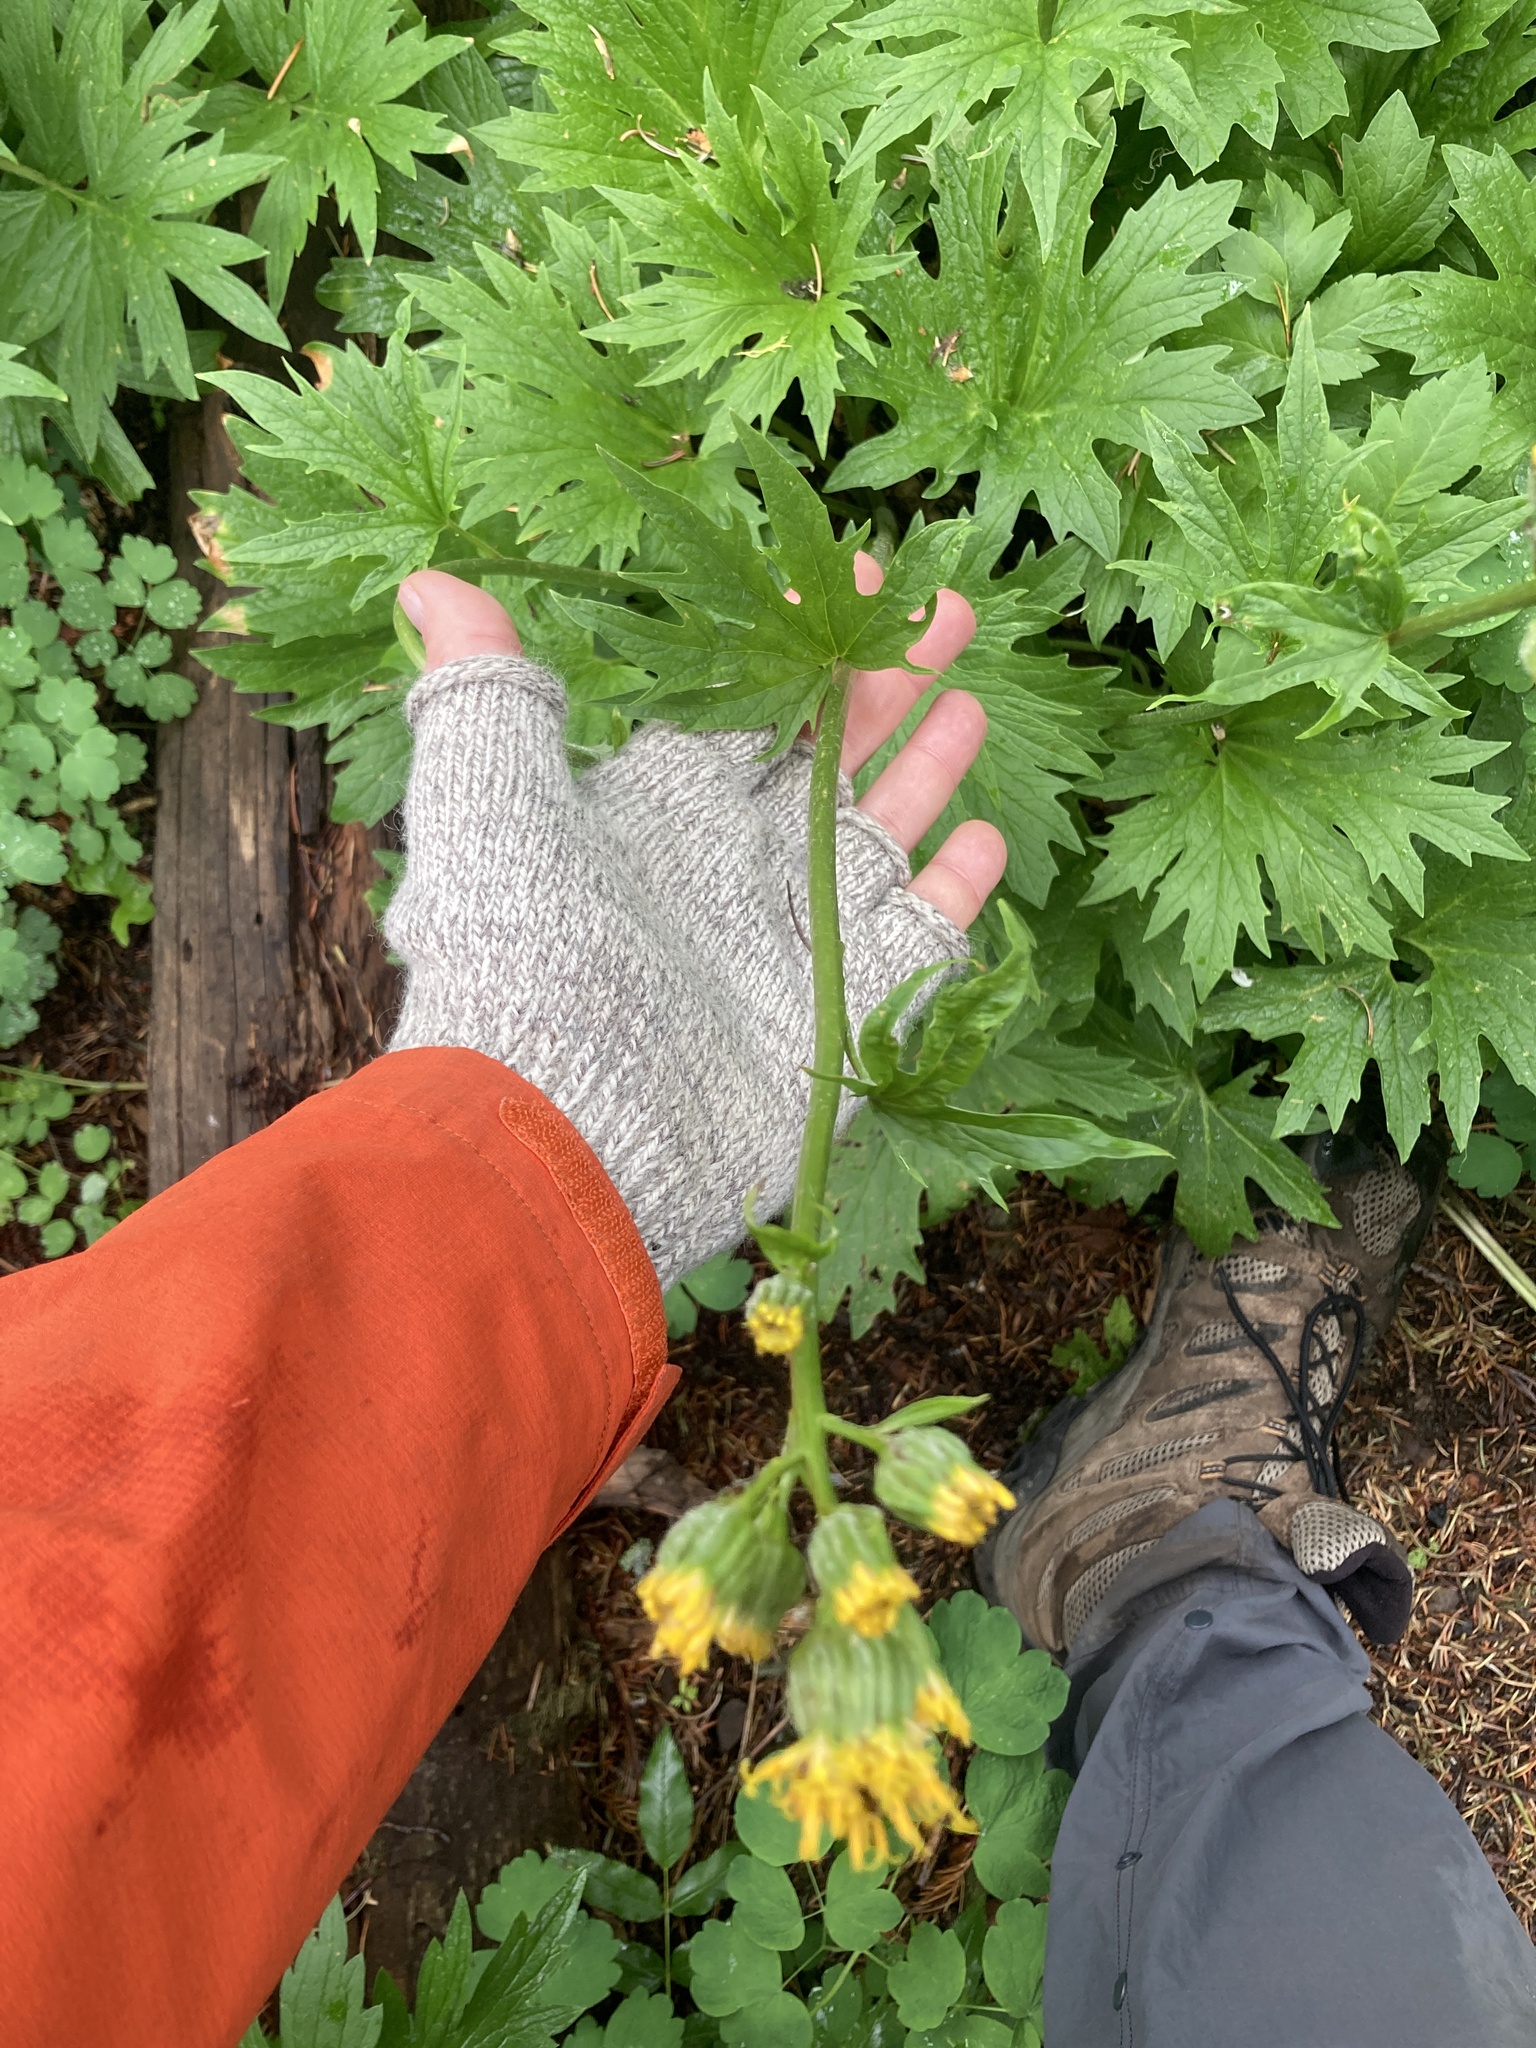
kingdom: Plantae
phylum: Tracheophyta
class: Magnoliopsida
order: Asterales
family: Asteraceae
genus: Cacaliopsis
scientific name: Cacaliopsis nardosmia
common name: Silvercrown
